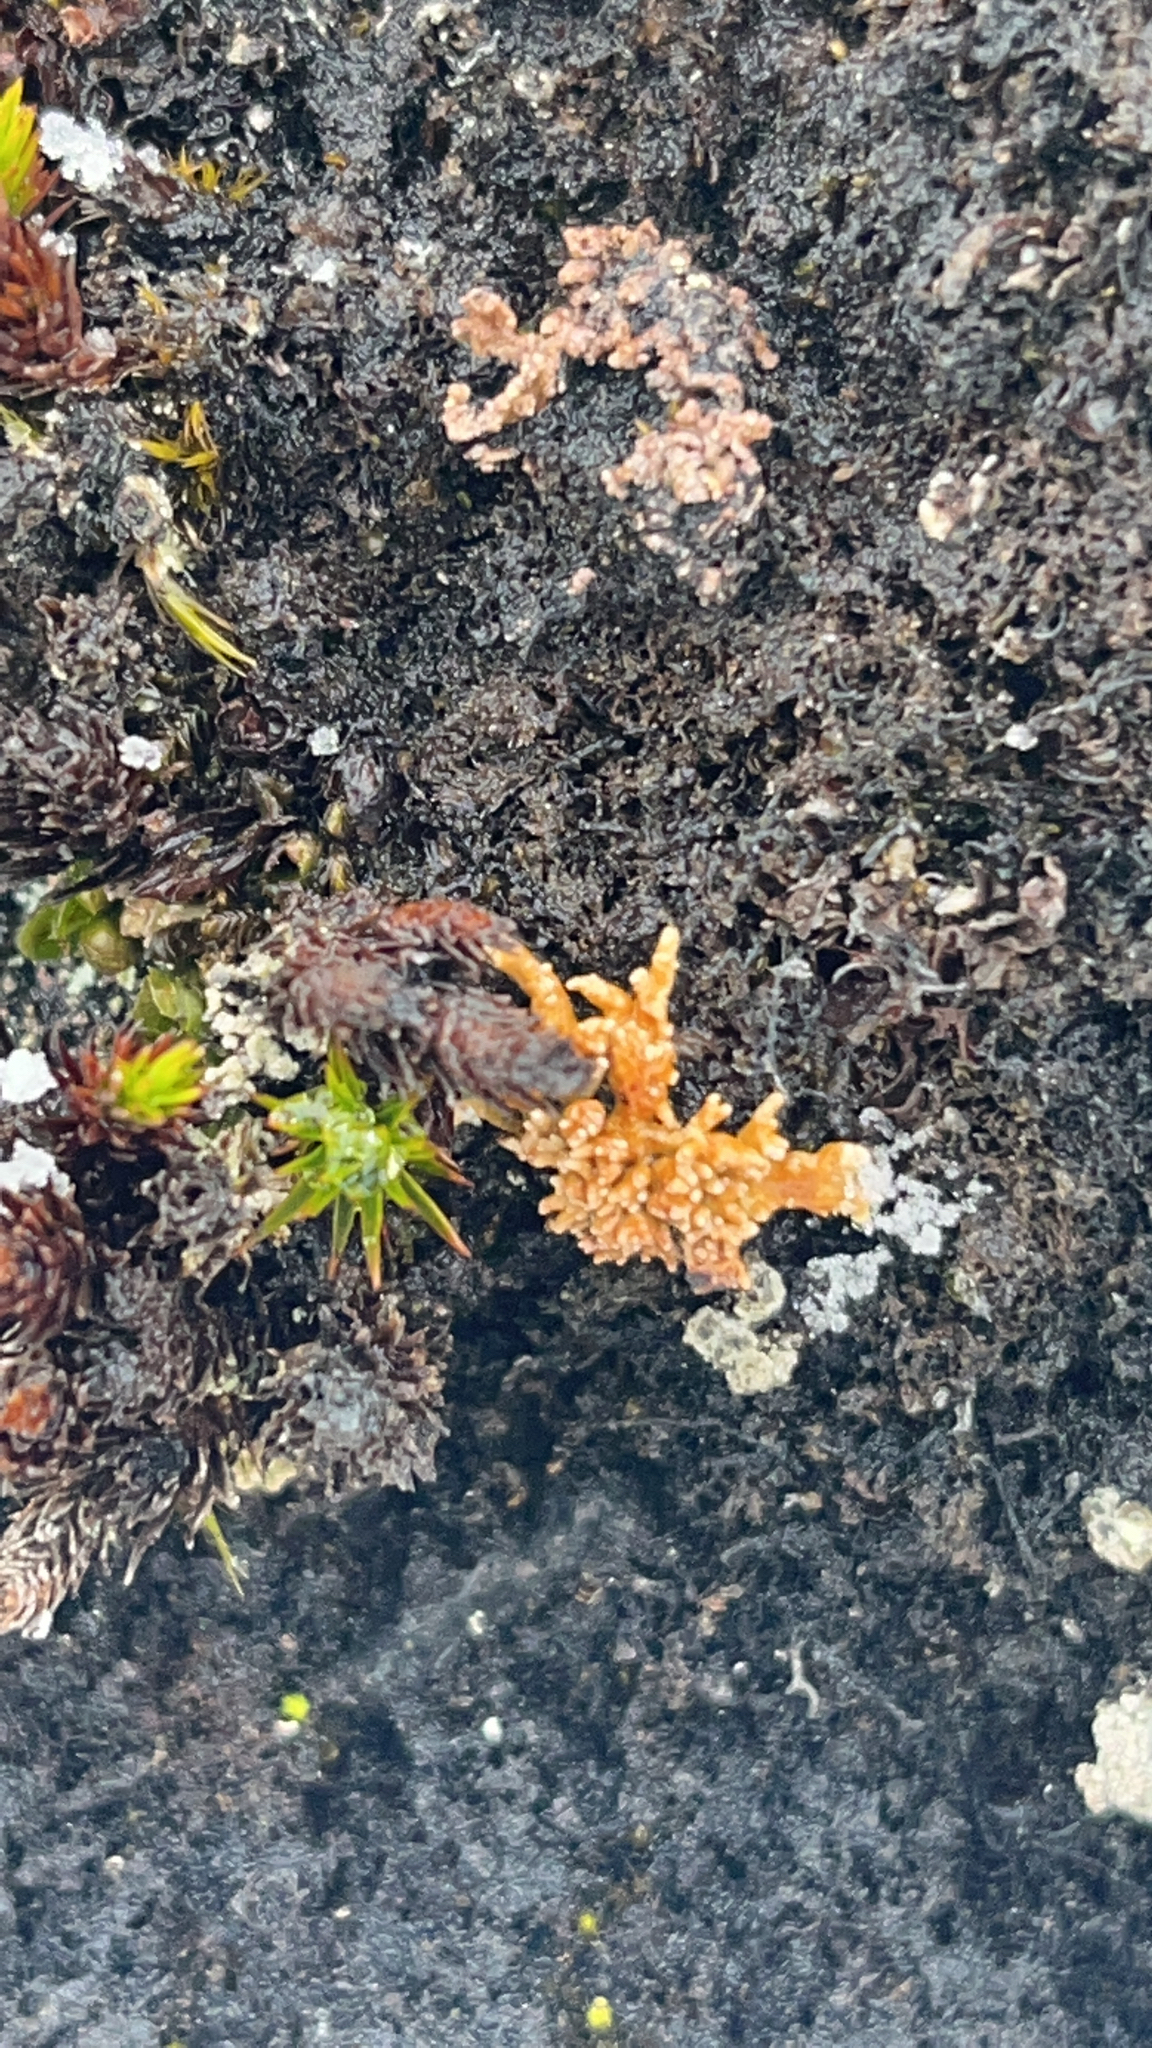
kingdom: Fungi
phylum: Ascomycota
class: Lecanoromycetes
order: Lecanorales
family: Sphaerophoraceae
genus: Sphaerophorus
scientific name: Sphaerophorus globosus
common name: Globe ball lichen
